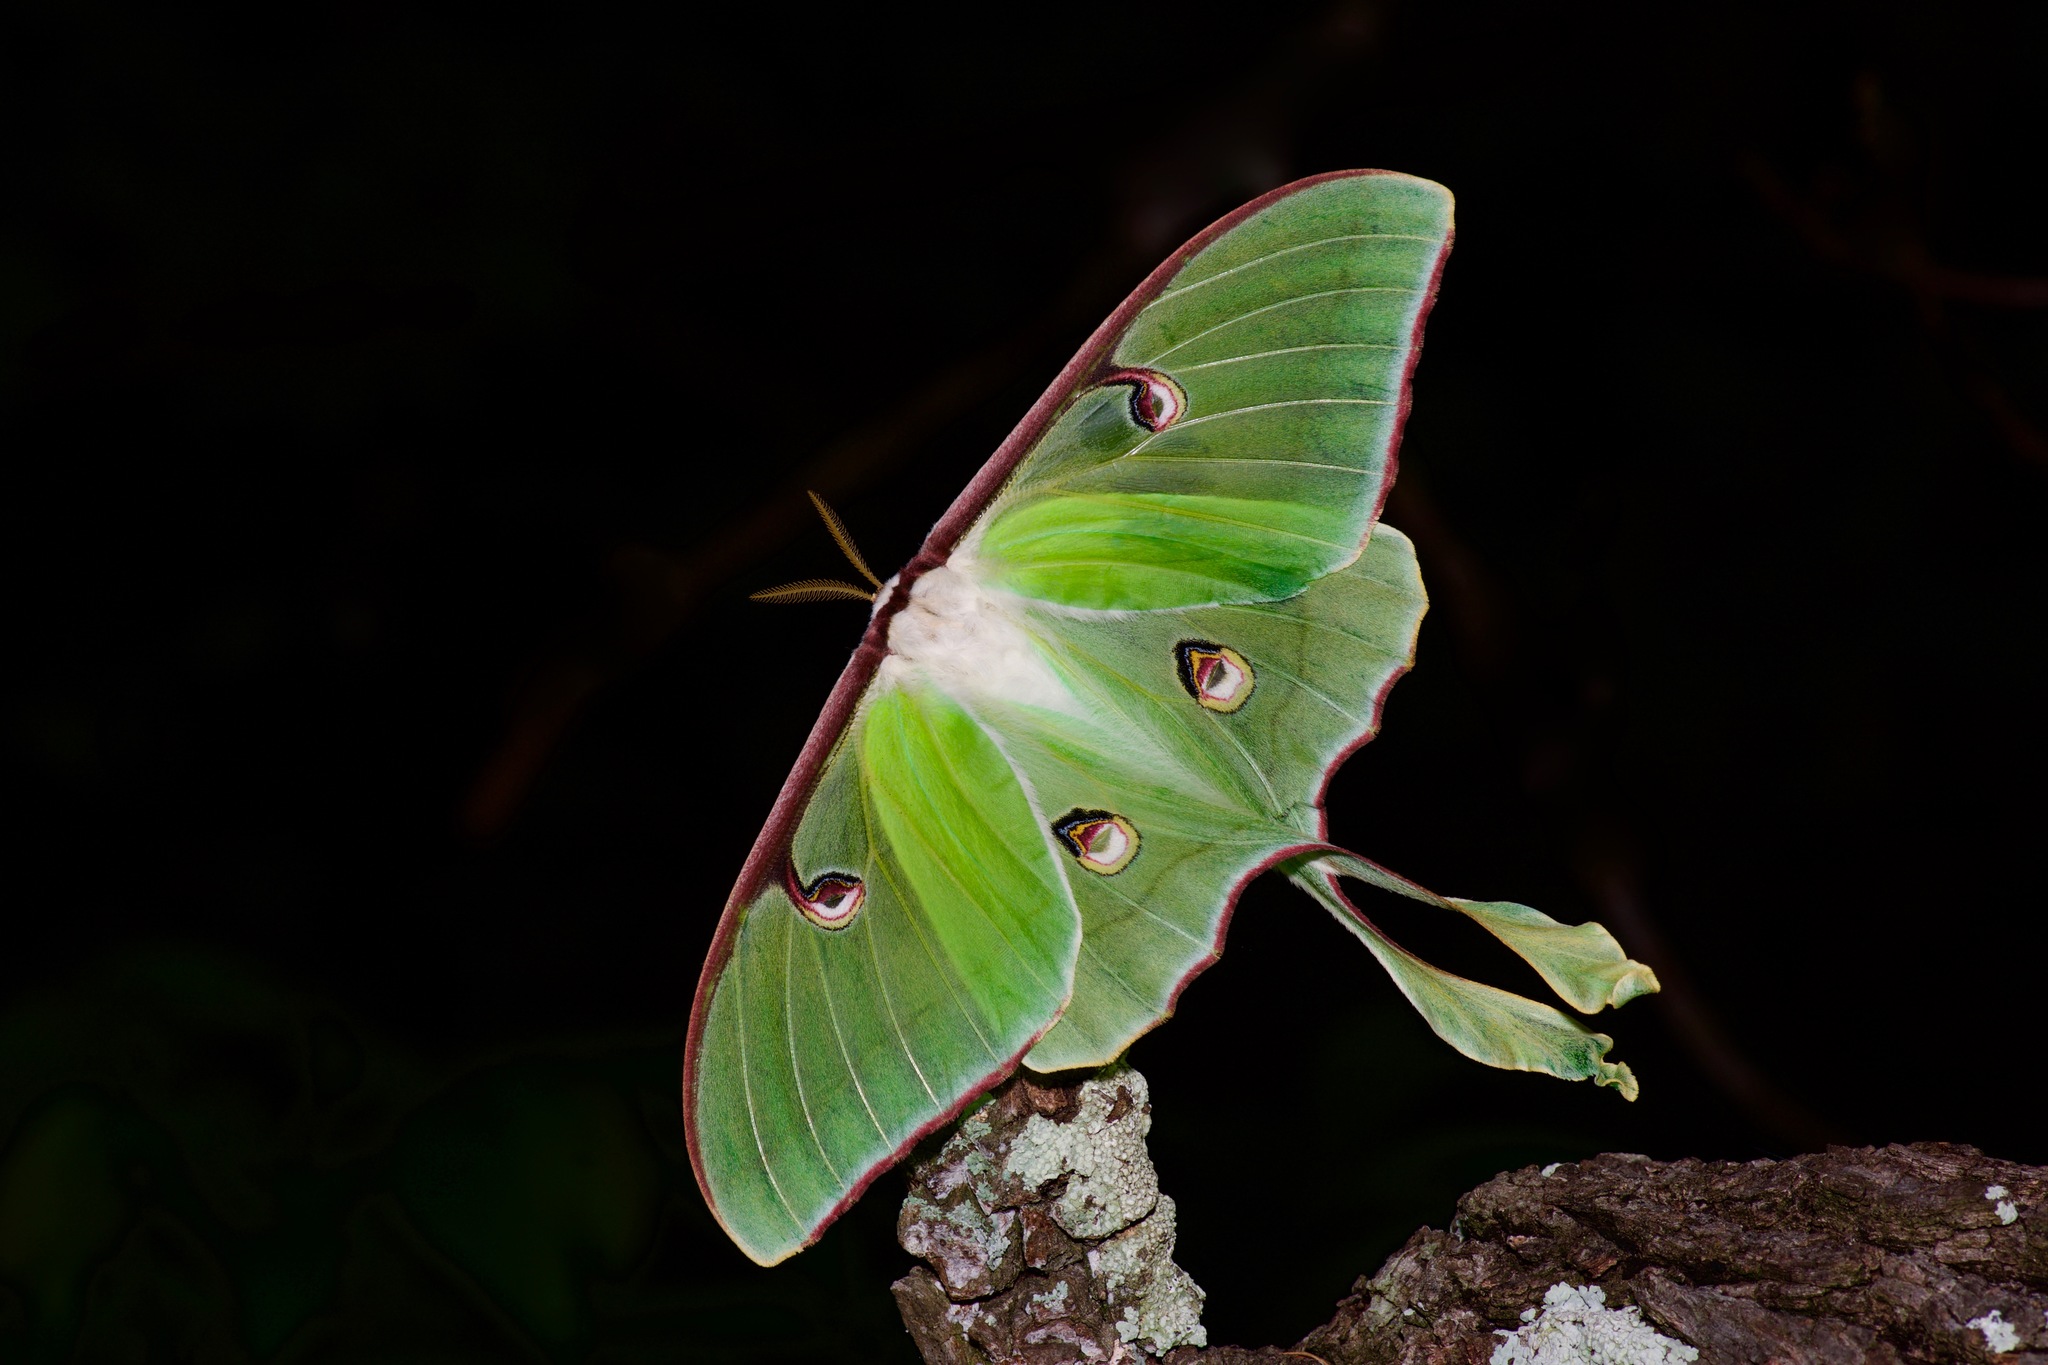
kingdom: Animalia
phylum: Arthropoda
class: Insecta
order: Lepidoptera
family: Saturniidae
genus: Actias
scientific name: Actias luna
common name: Luna moth
